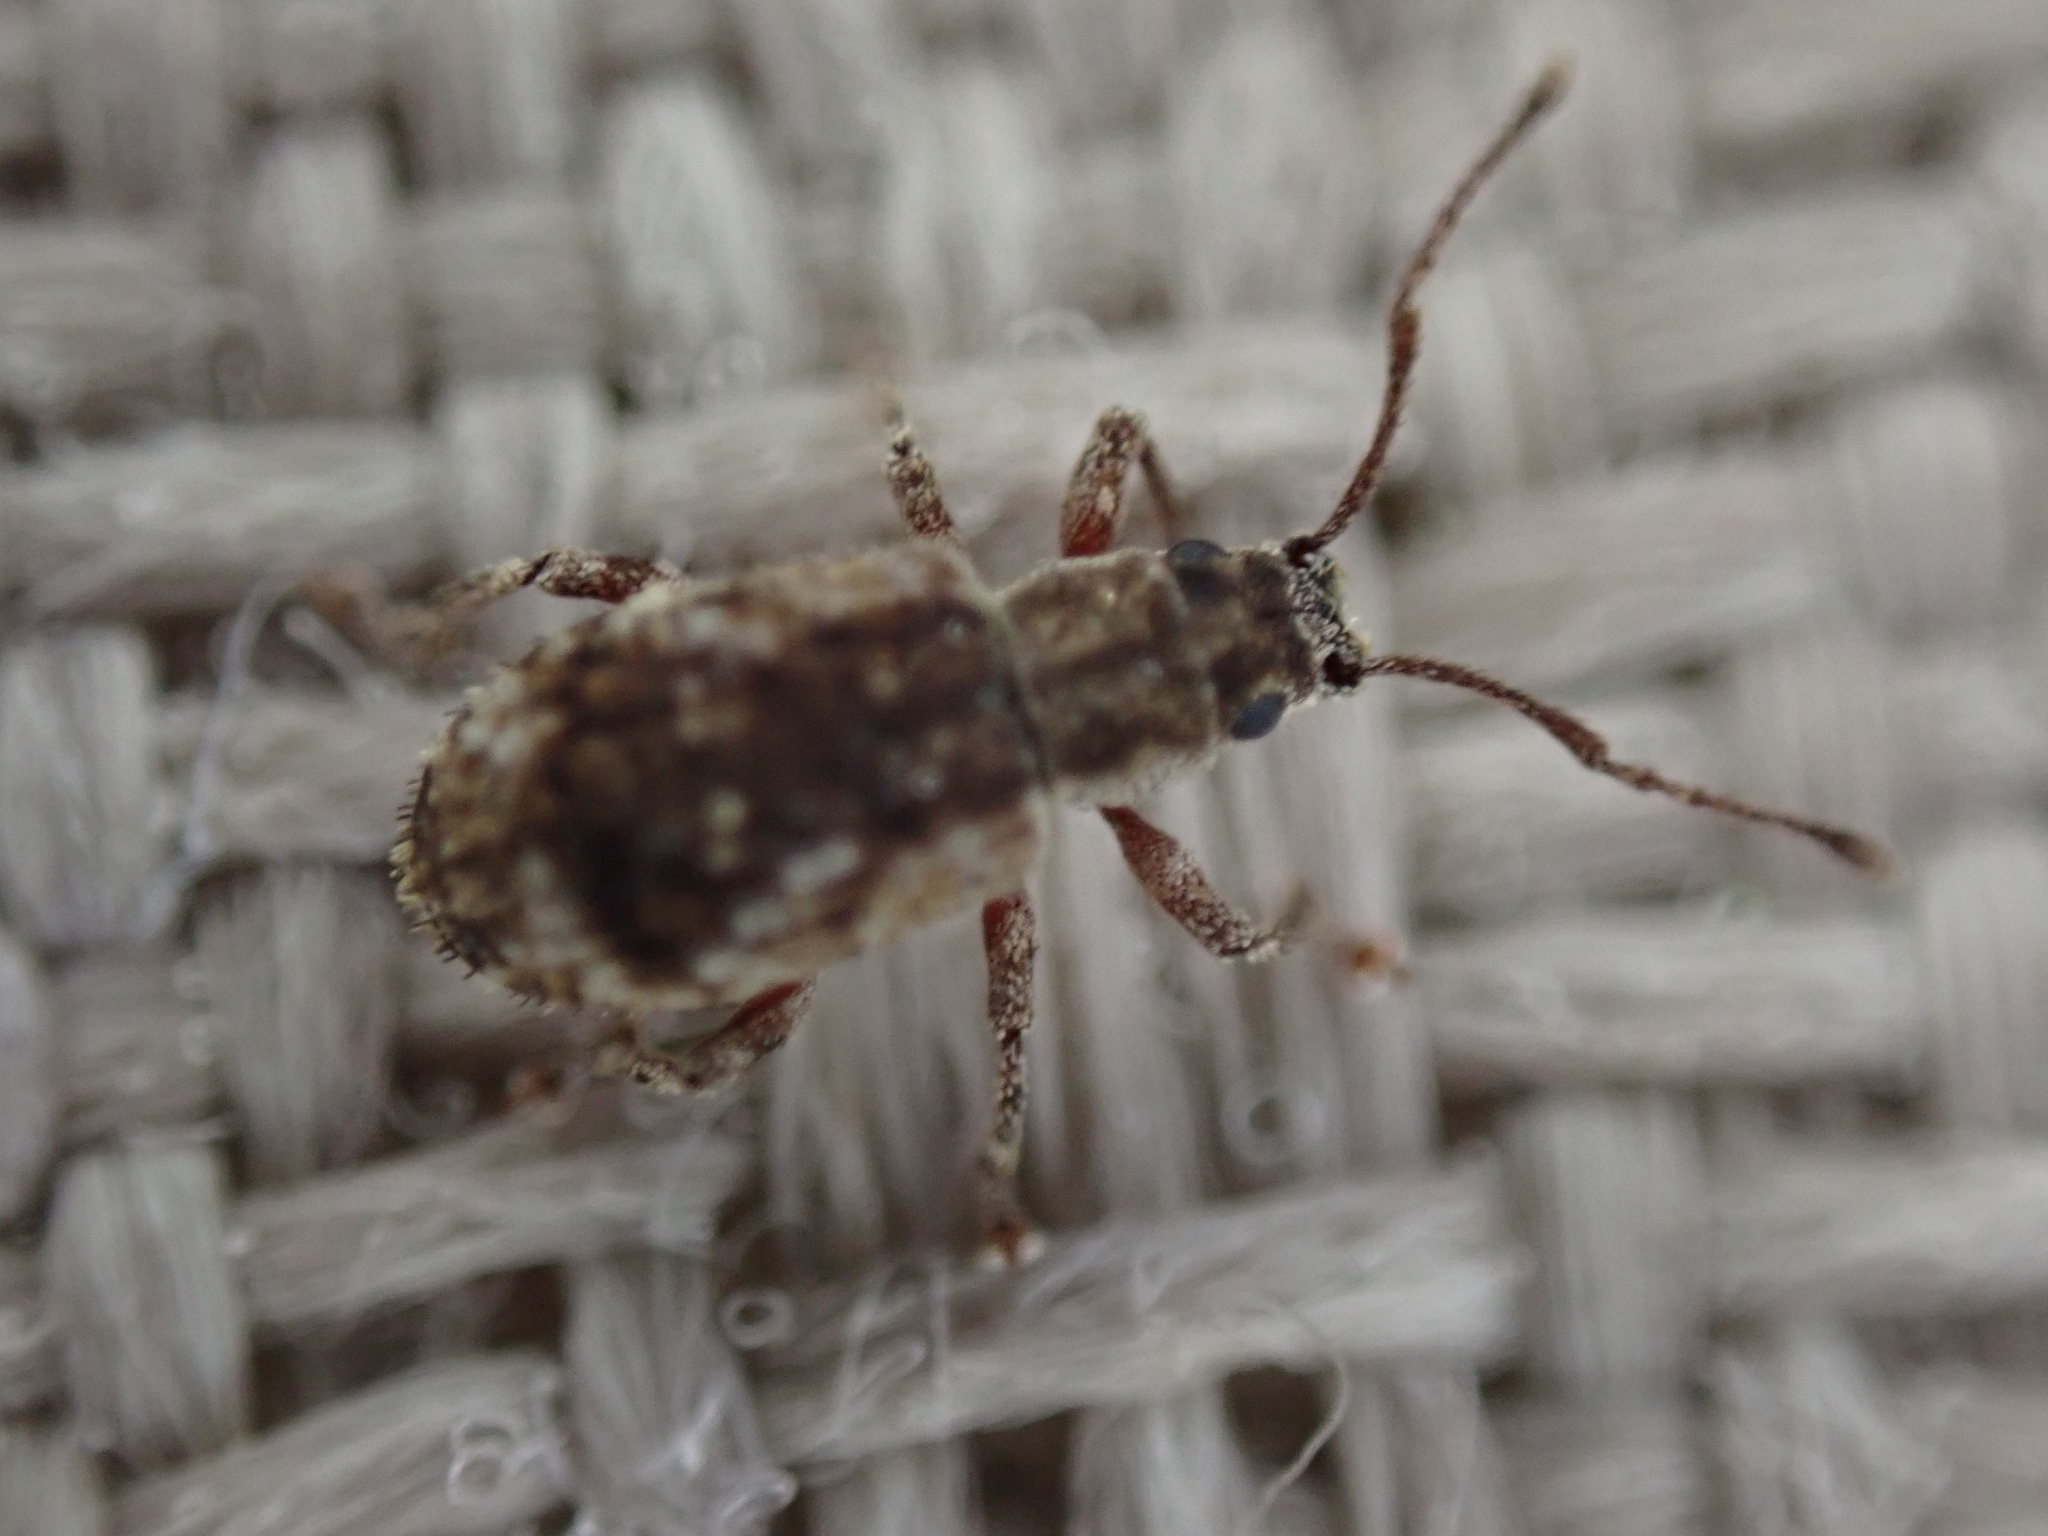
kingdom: Animalia
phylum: Arthropoda
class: Insecta
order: Coleoptera
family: Curculionidae
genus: Pseudoedophrys
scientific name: Pseudoedophrys hilleri
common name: Weevil
